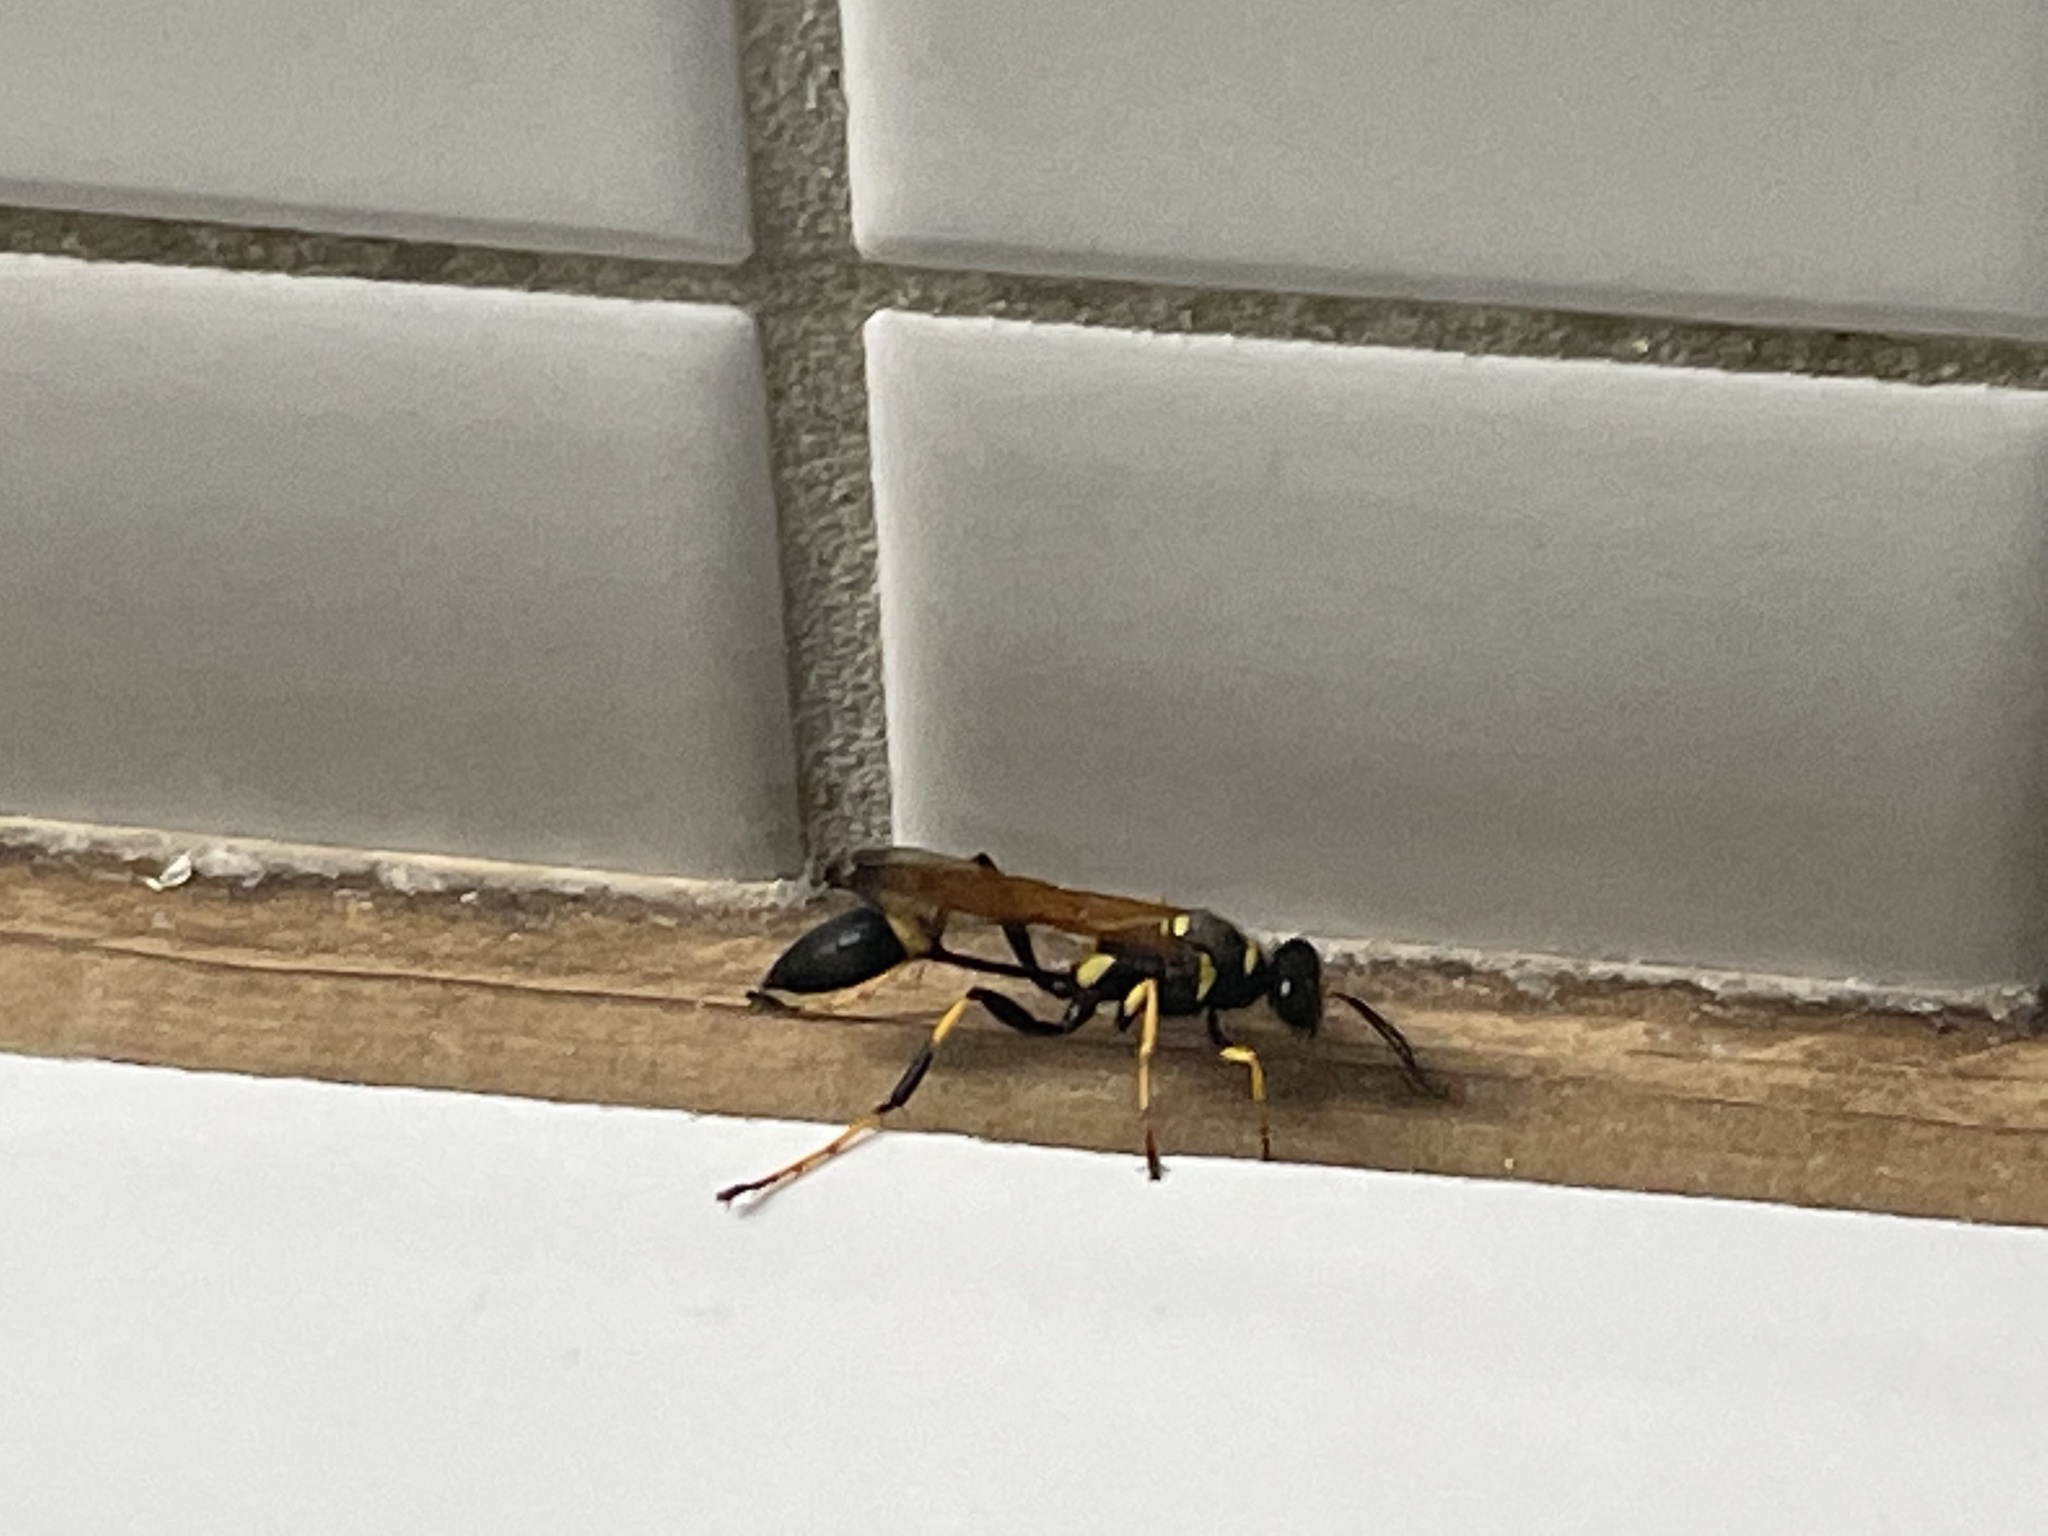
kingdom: Animalia
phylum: Arthropoda
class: Insecta
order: Hymenoptera
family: Sphecidae
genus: Sceliphron
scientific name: Sceliphron caementarium
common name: Mud dauber
